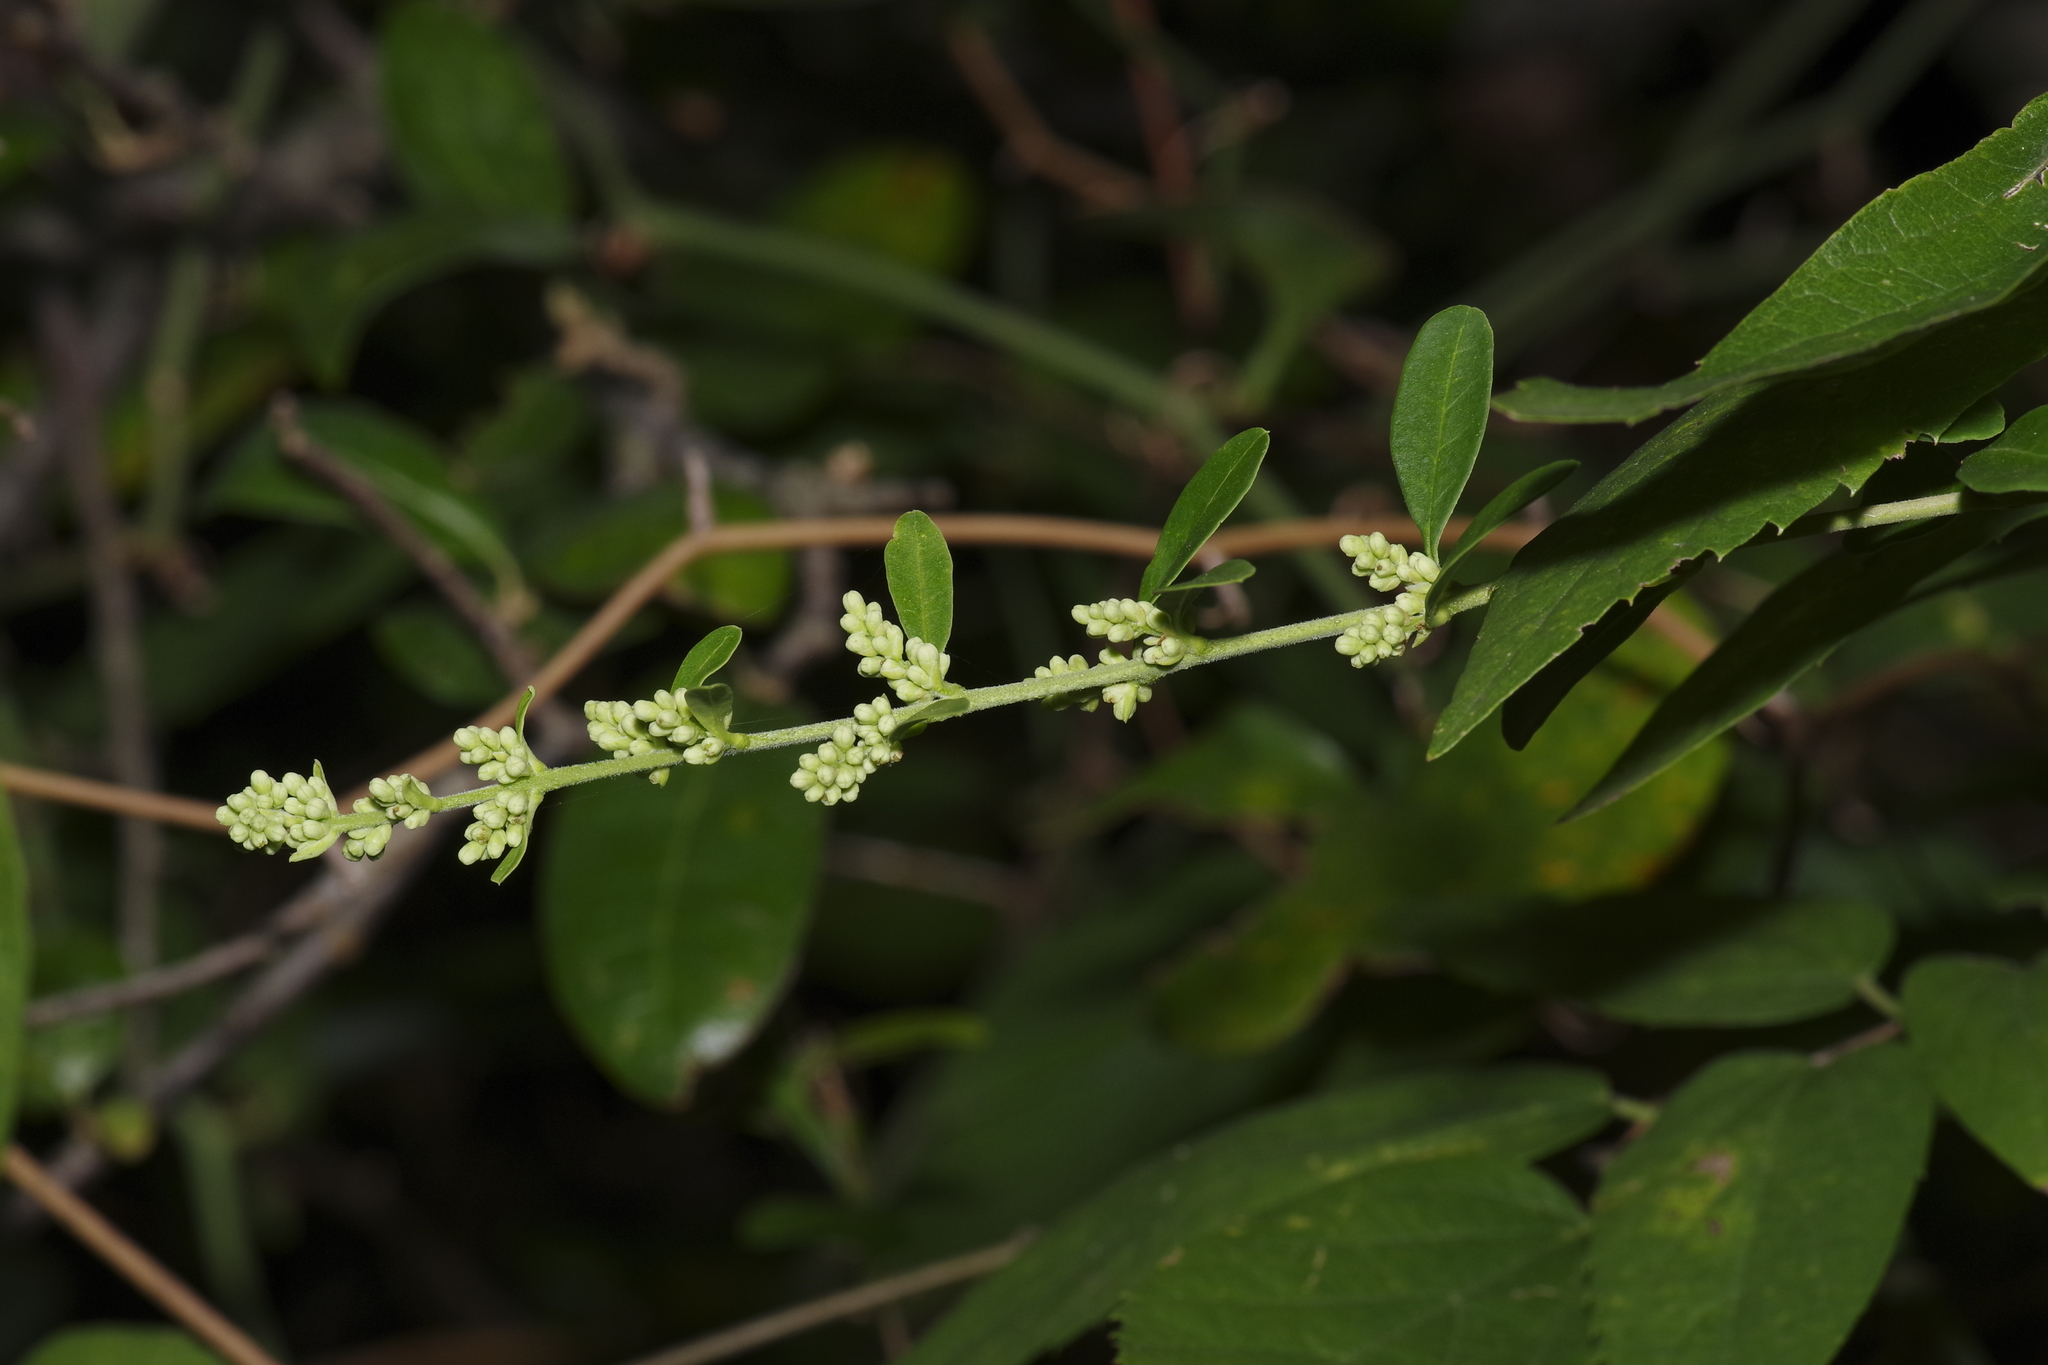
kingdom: Plantae
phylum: Tracheophyta
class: Magnoliopsida
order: Lamiales
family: Oleaceae
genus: Ligustrum
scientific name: Ligustrum quihoui
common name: Waxyleaf privet
